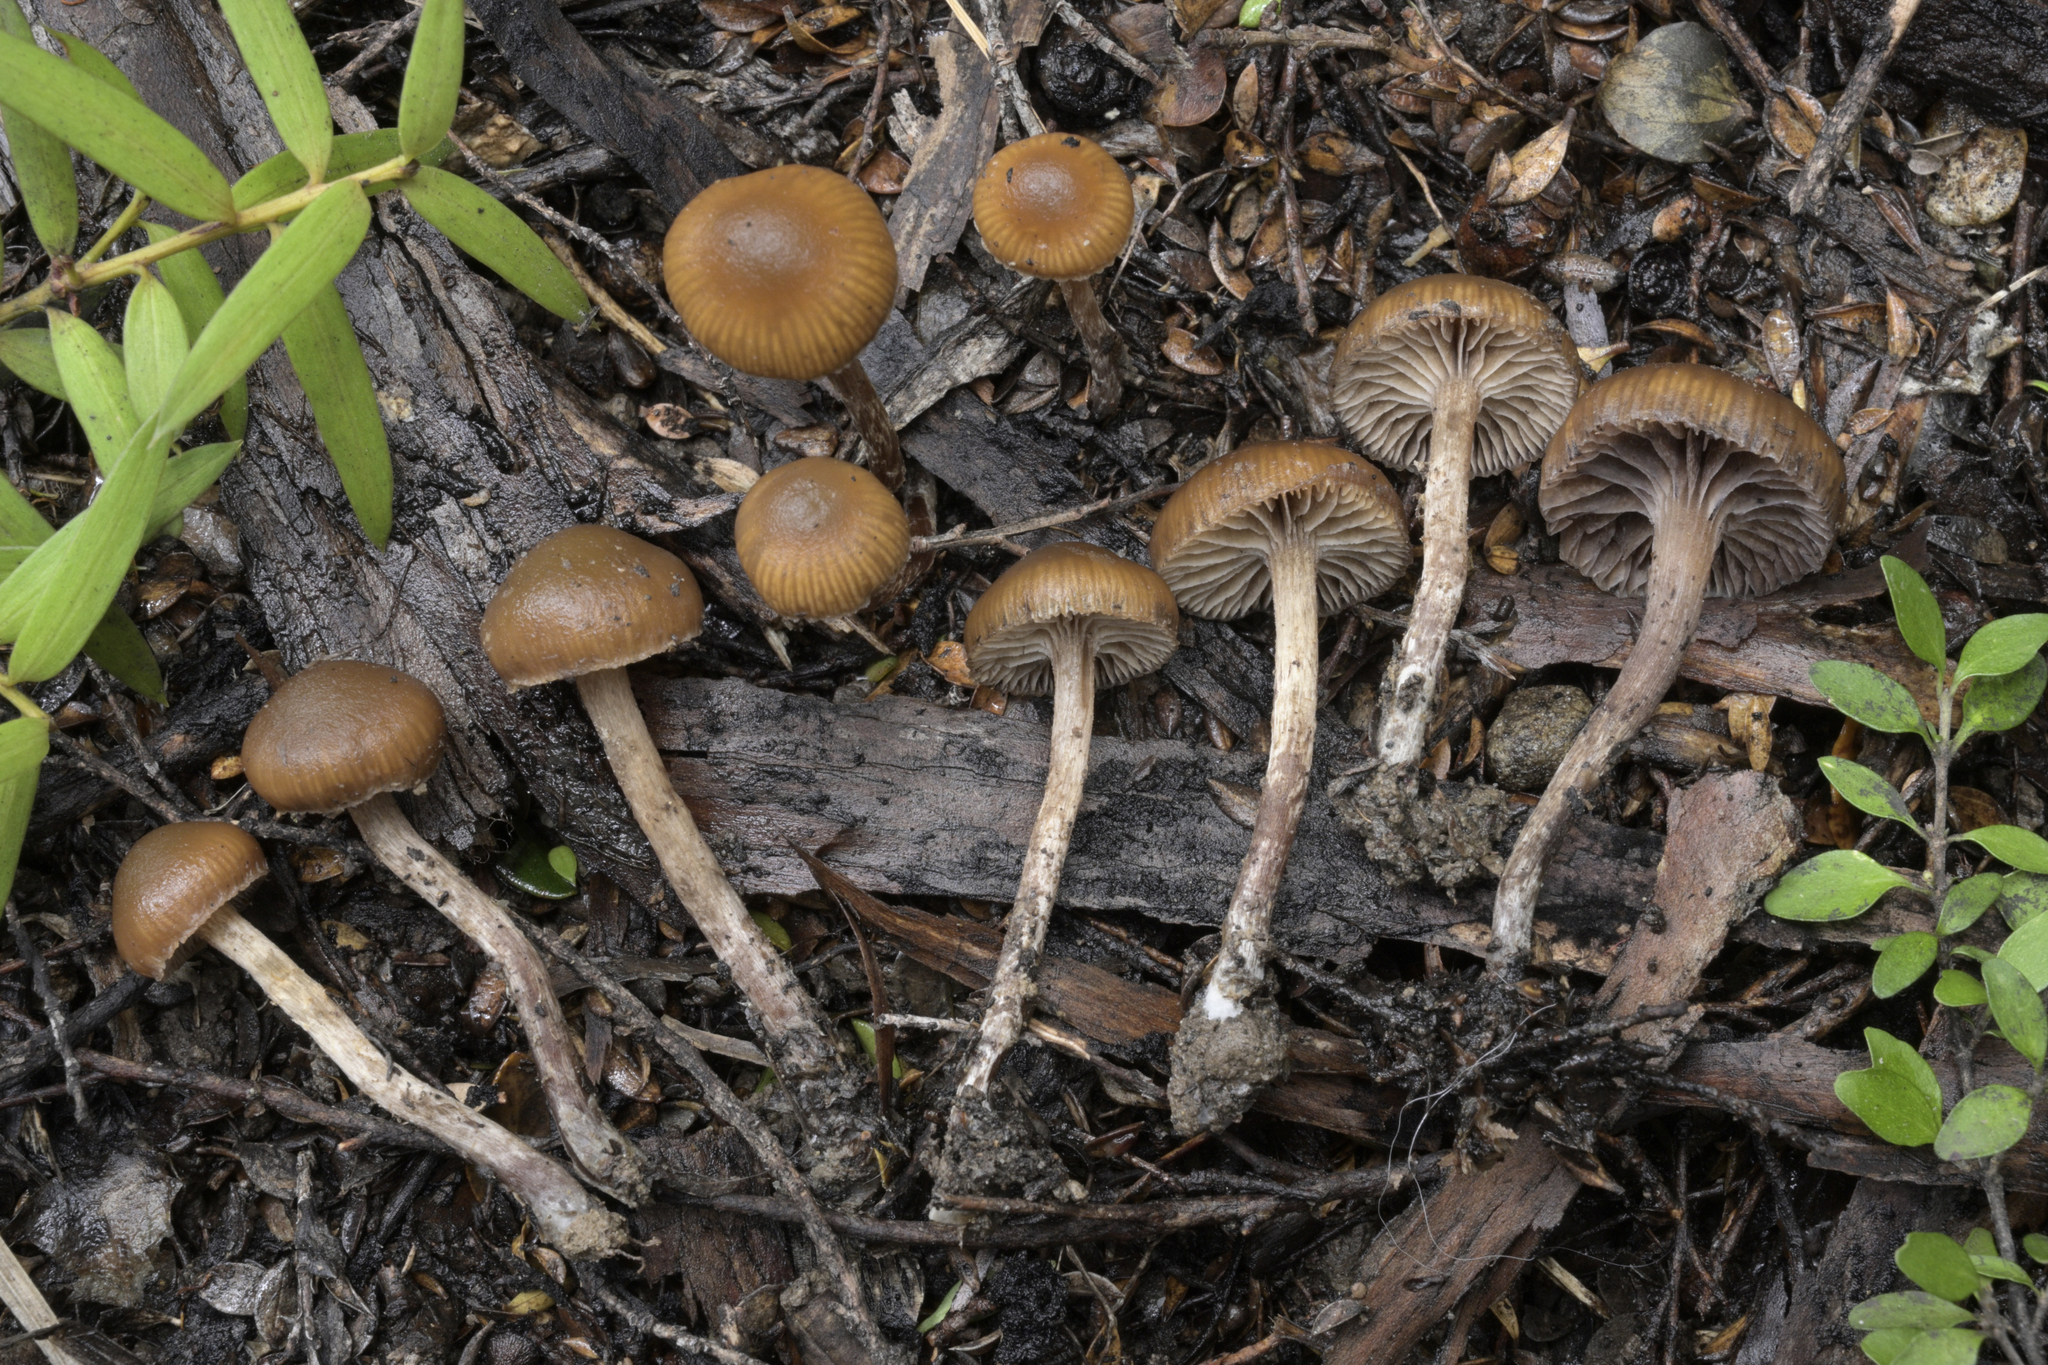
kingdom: Fungi
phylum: Basidiomycota
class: Agaricomycetes
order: Agaricales
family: Strophariaceae
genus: Deconica
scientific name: Deconica novae-zelandiae
